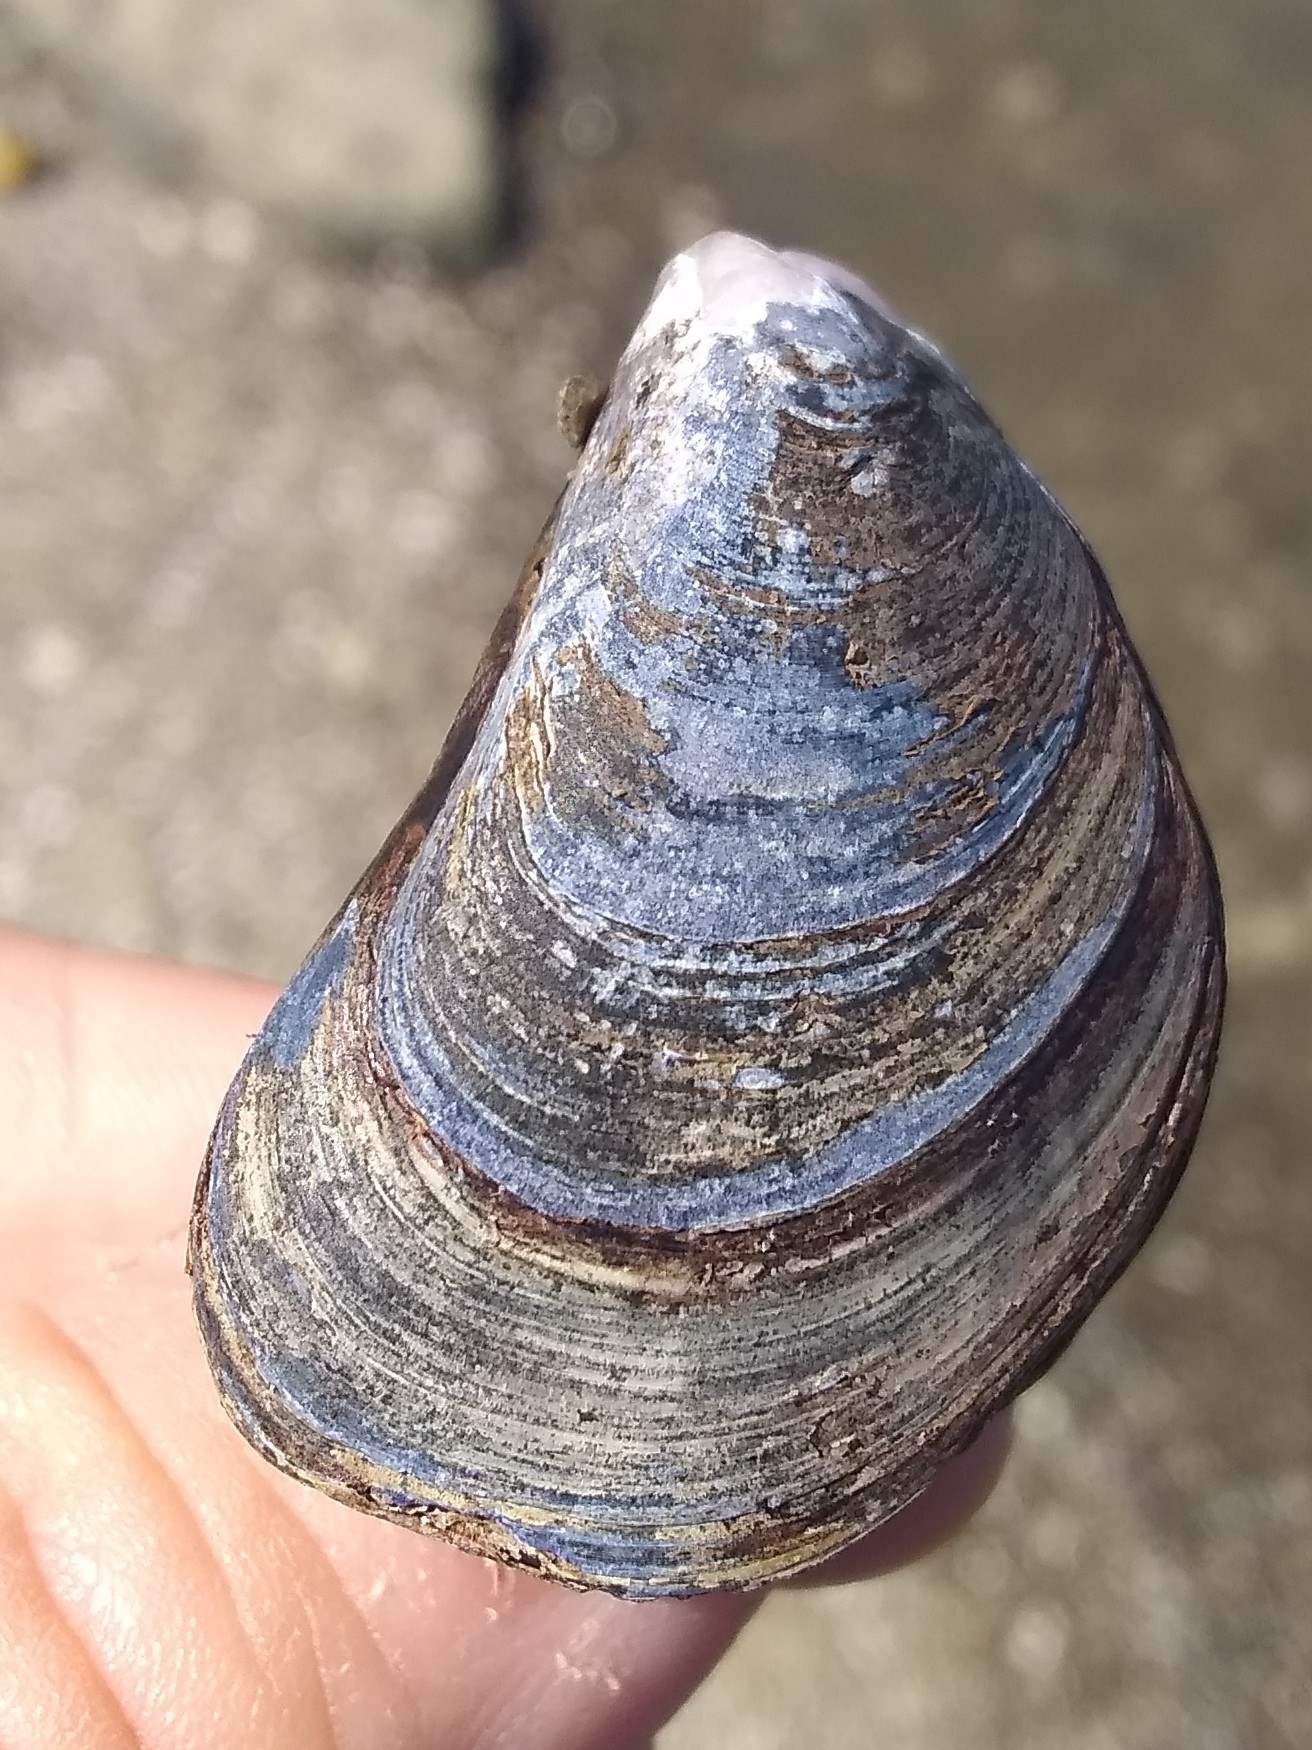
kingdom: Animalia
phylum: Mollusca
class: Bivalvia
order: Mytilida
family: Mytilidae
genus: Mytilus
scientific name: Mytilus
